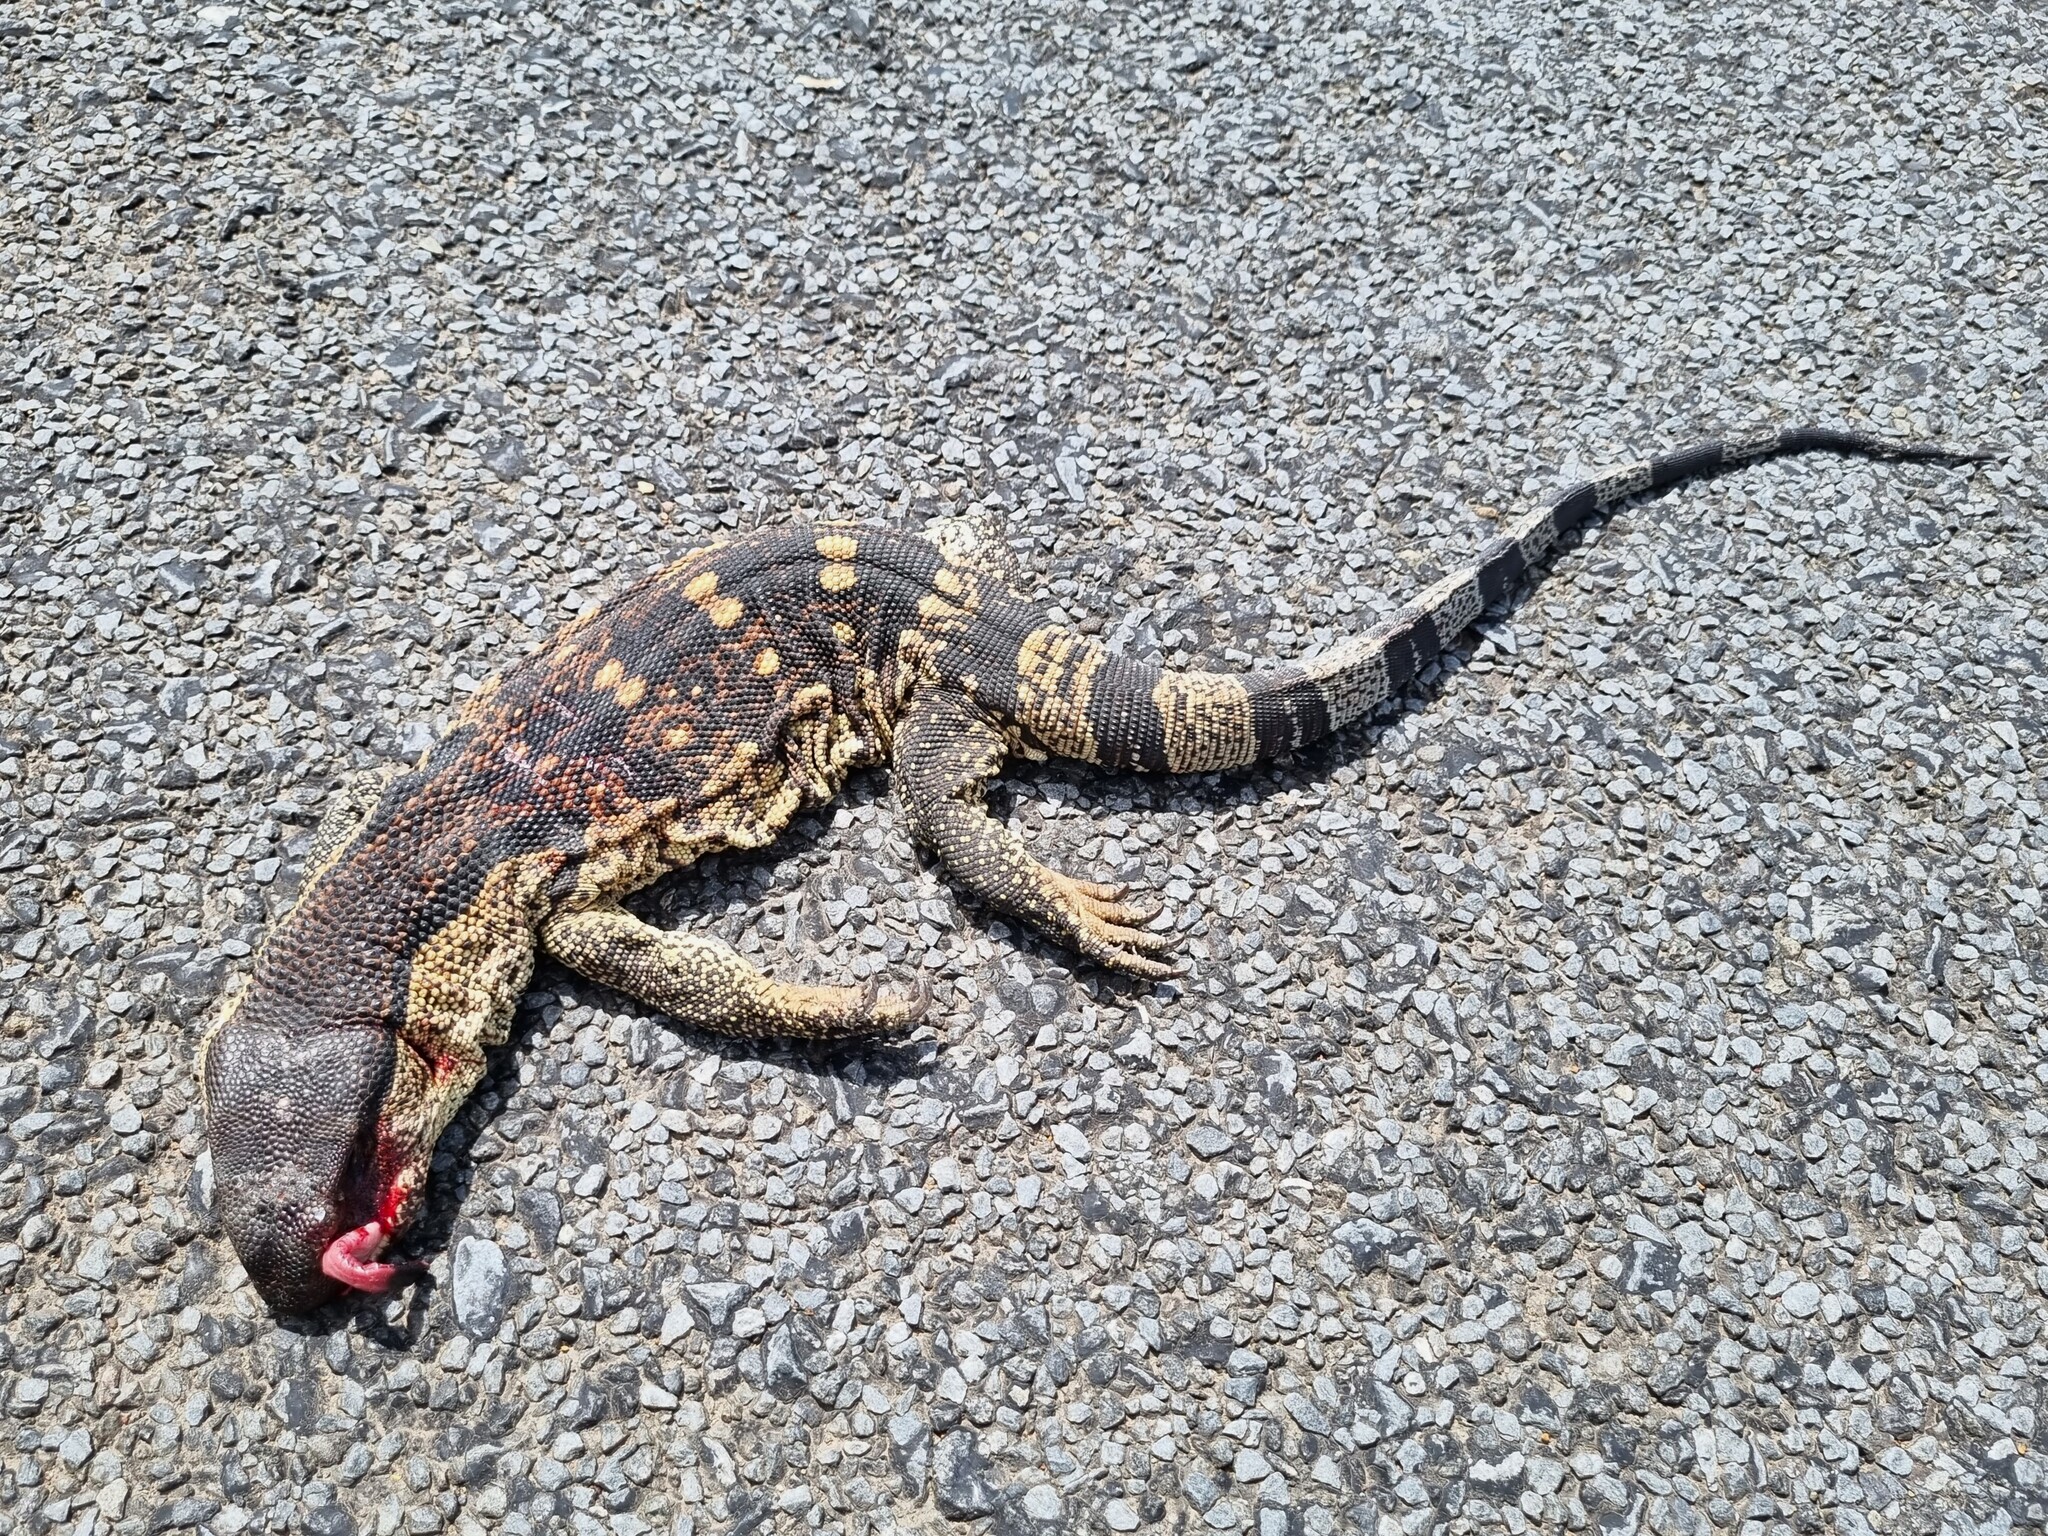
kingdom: Animalia
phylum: Chordata
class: Squamata
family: Varanidae
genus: Varanus
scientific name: Varanus albigularis
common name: White-throated monitor
